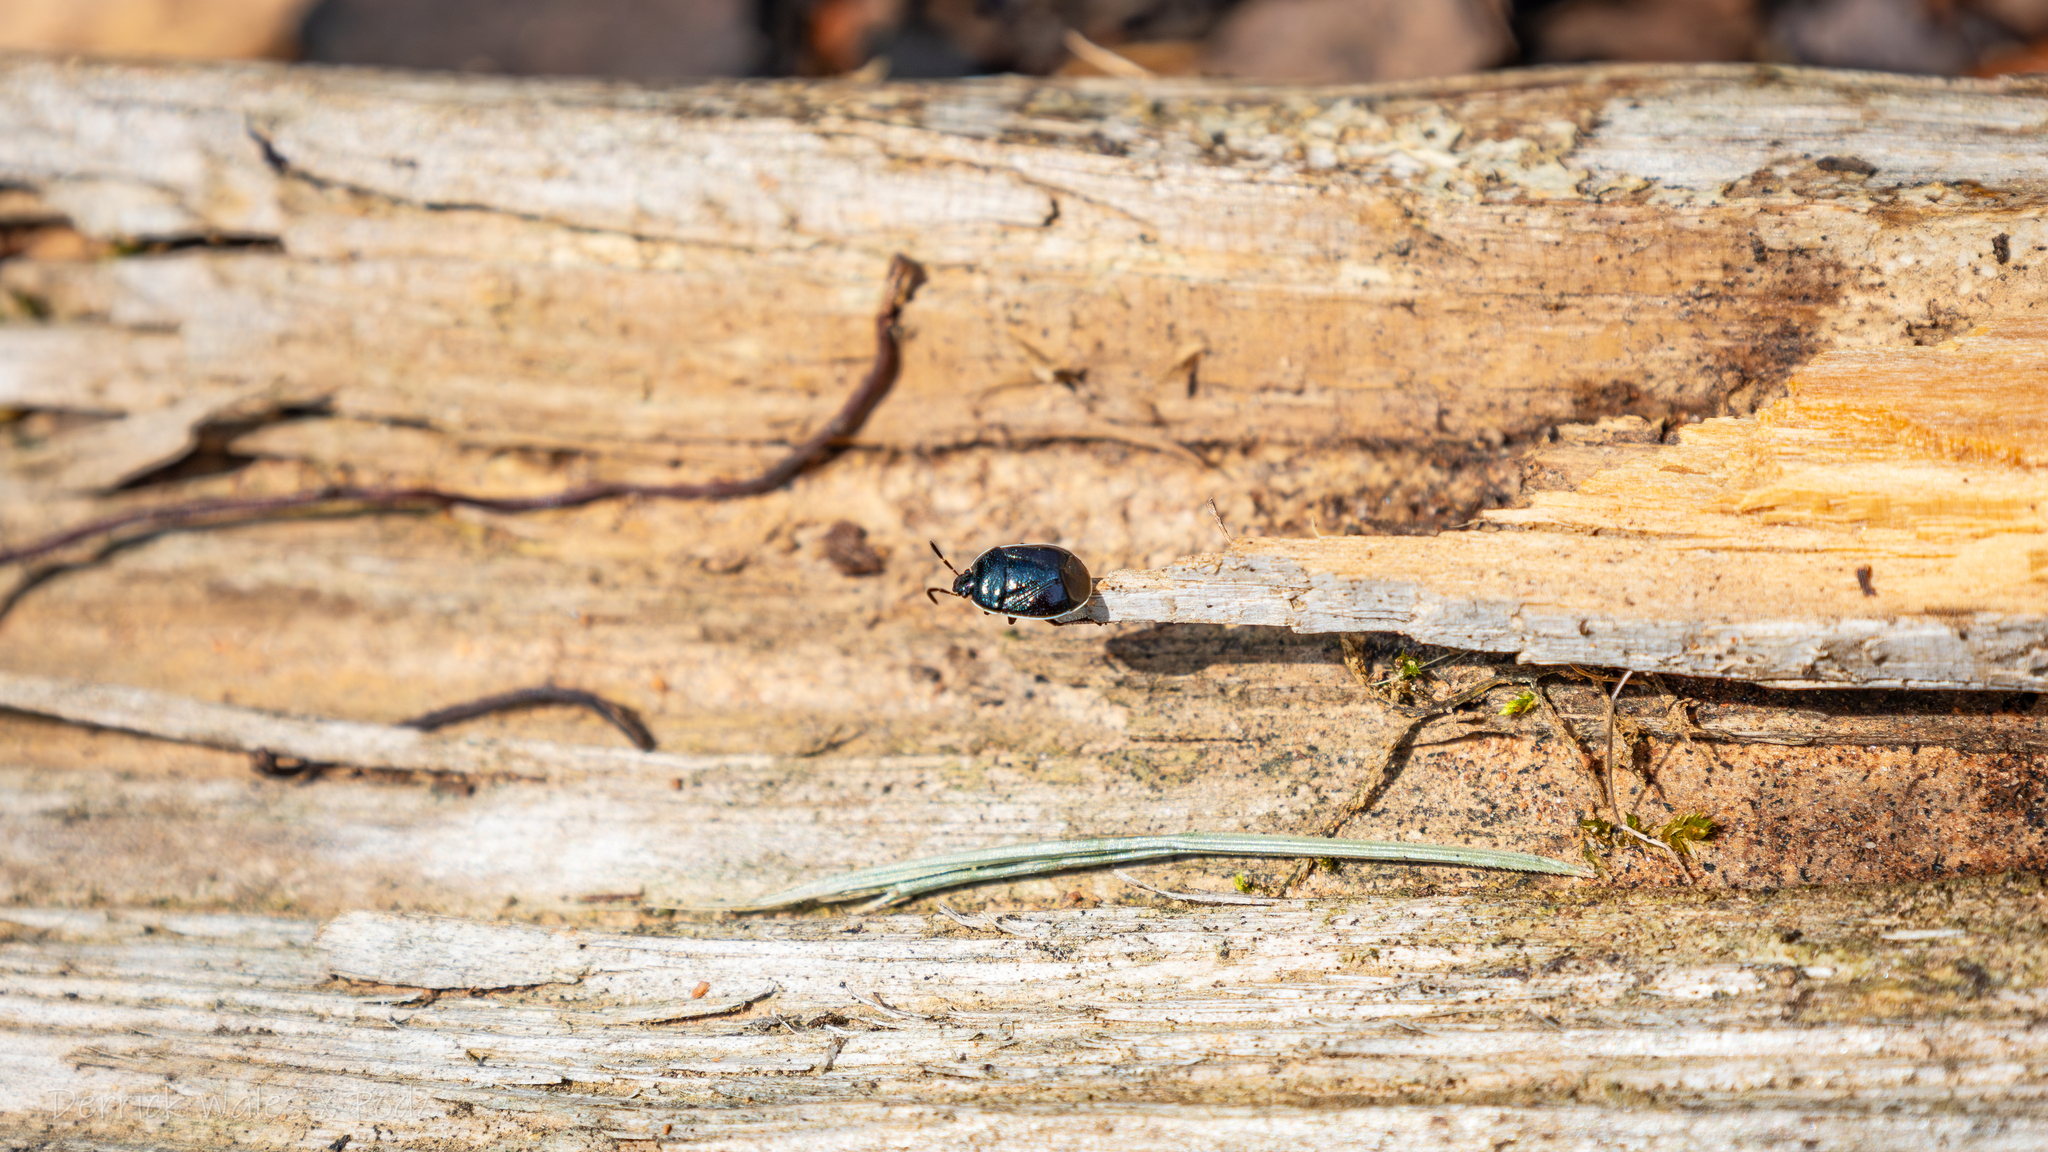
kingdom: Animalia
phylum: Arthropoda
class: Insecta
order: Hemiptera
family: Cydnidae
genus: Sehirus
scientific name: Sehirus cinctus
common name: White-margined burrower bug
